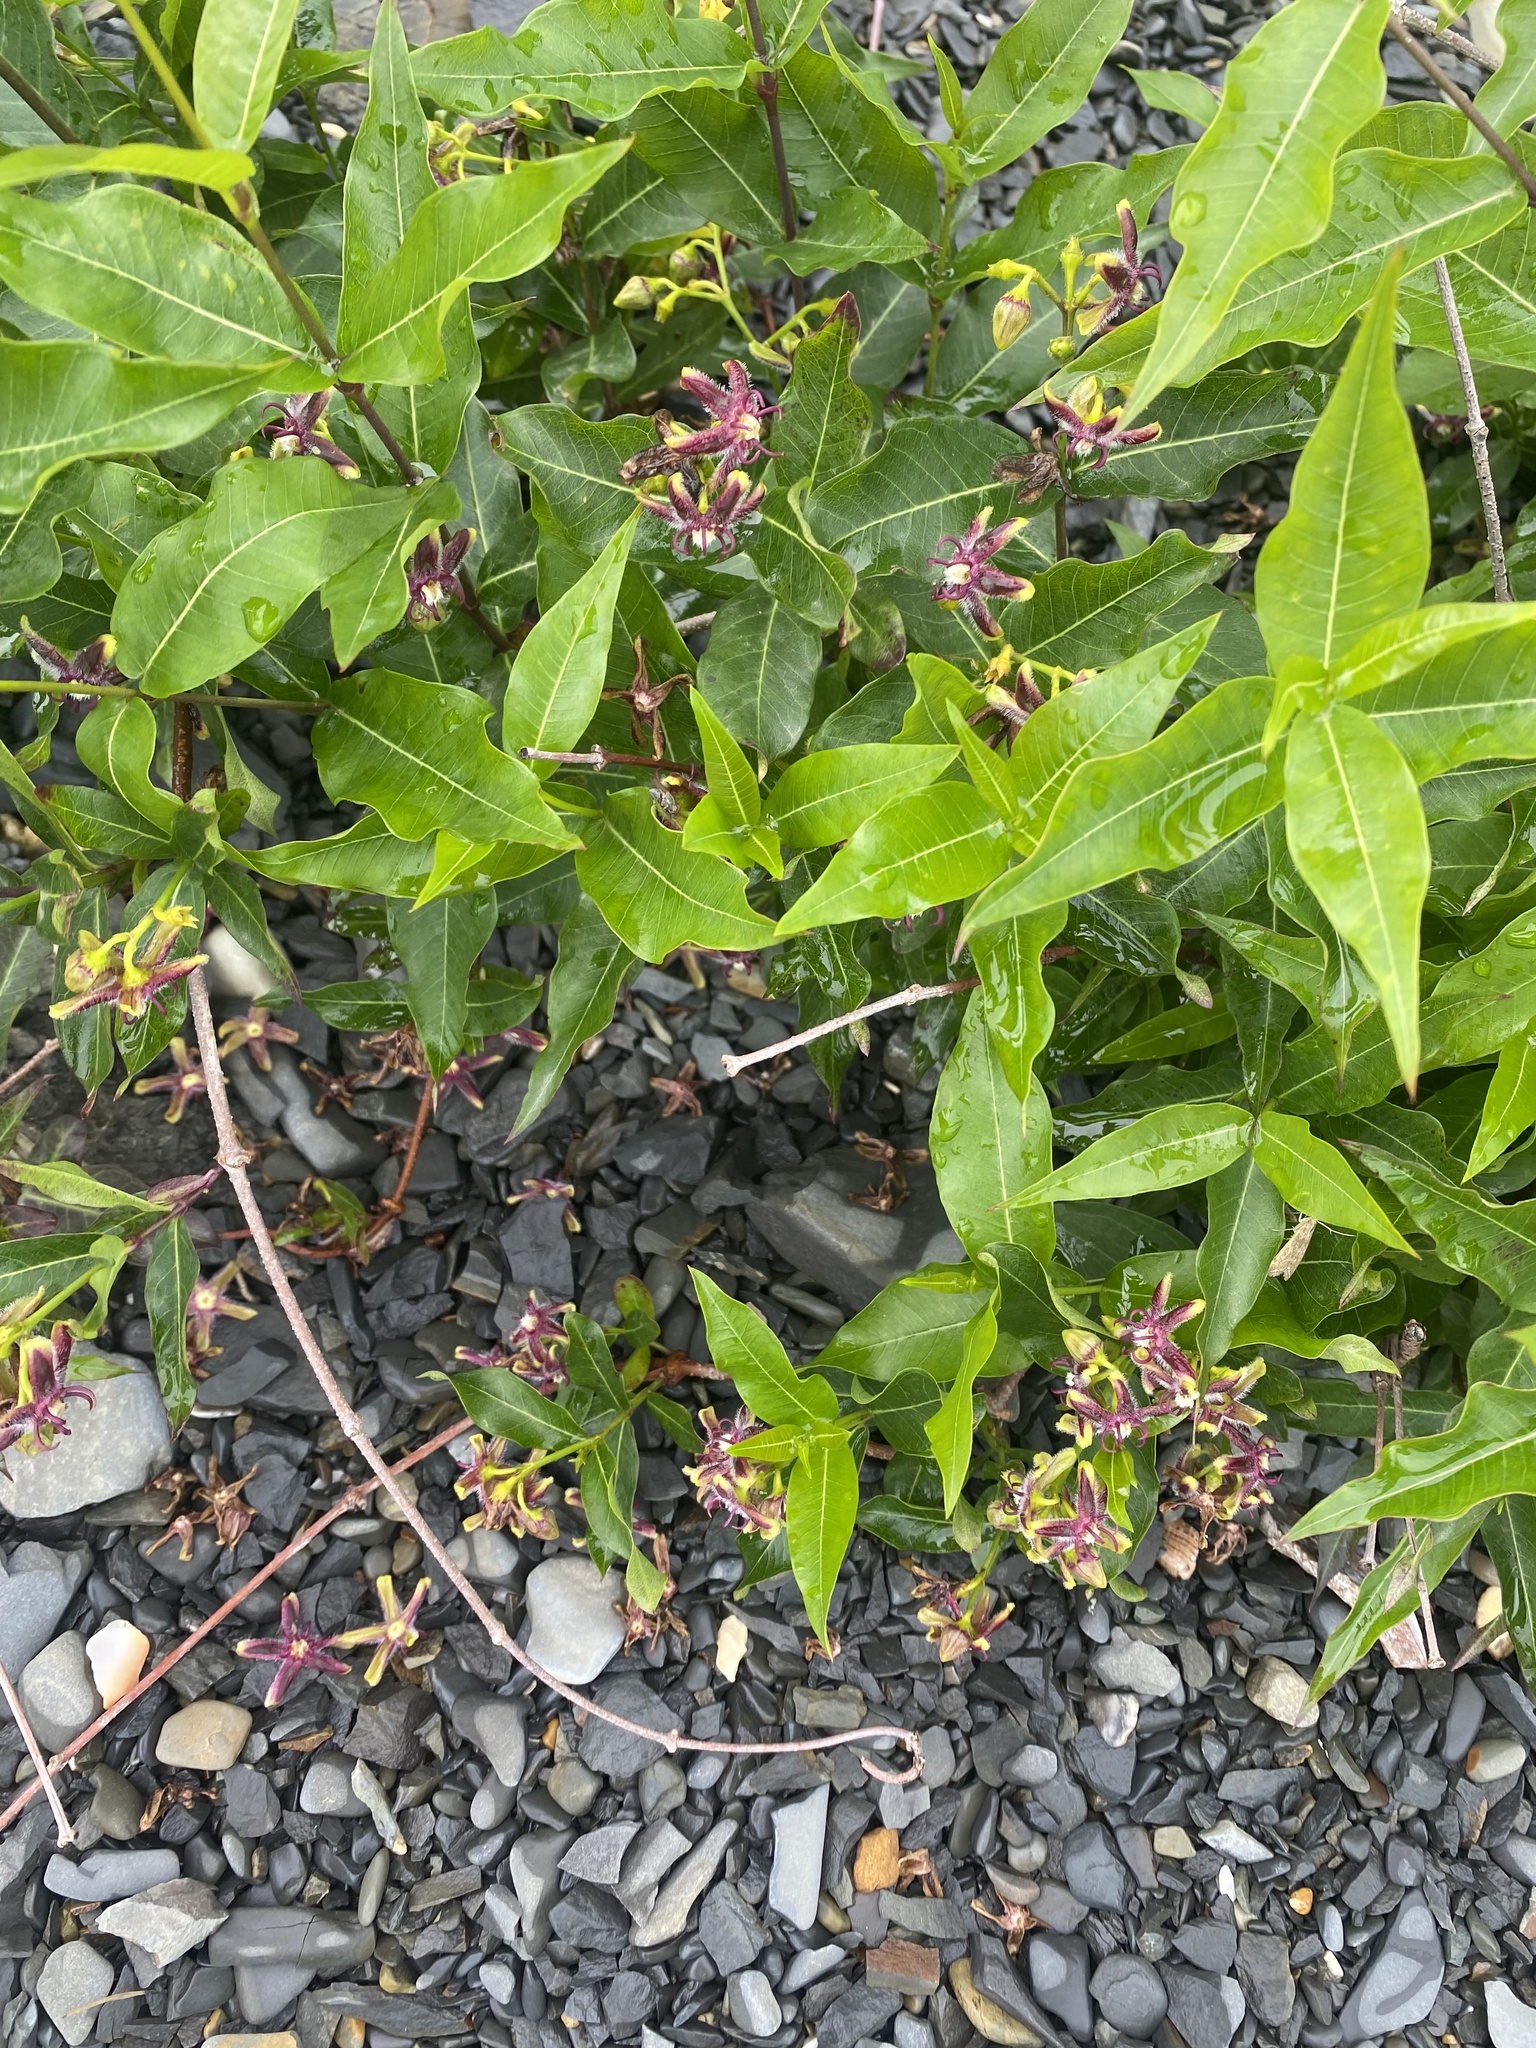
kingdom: Plantae
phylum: Tracheophyta
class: Magnoliopsida
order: Gentianales
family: Apocynaceae
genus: Periploca
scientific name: Periploca graeca
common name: Silkvine
